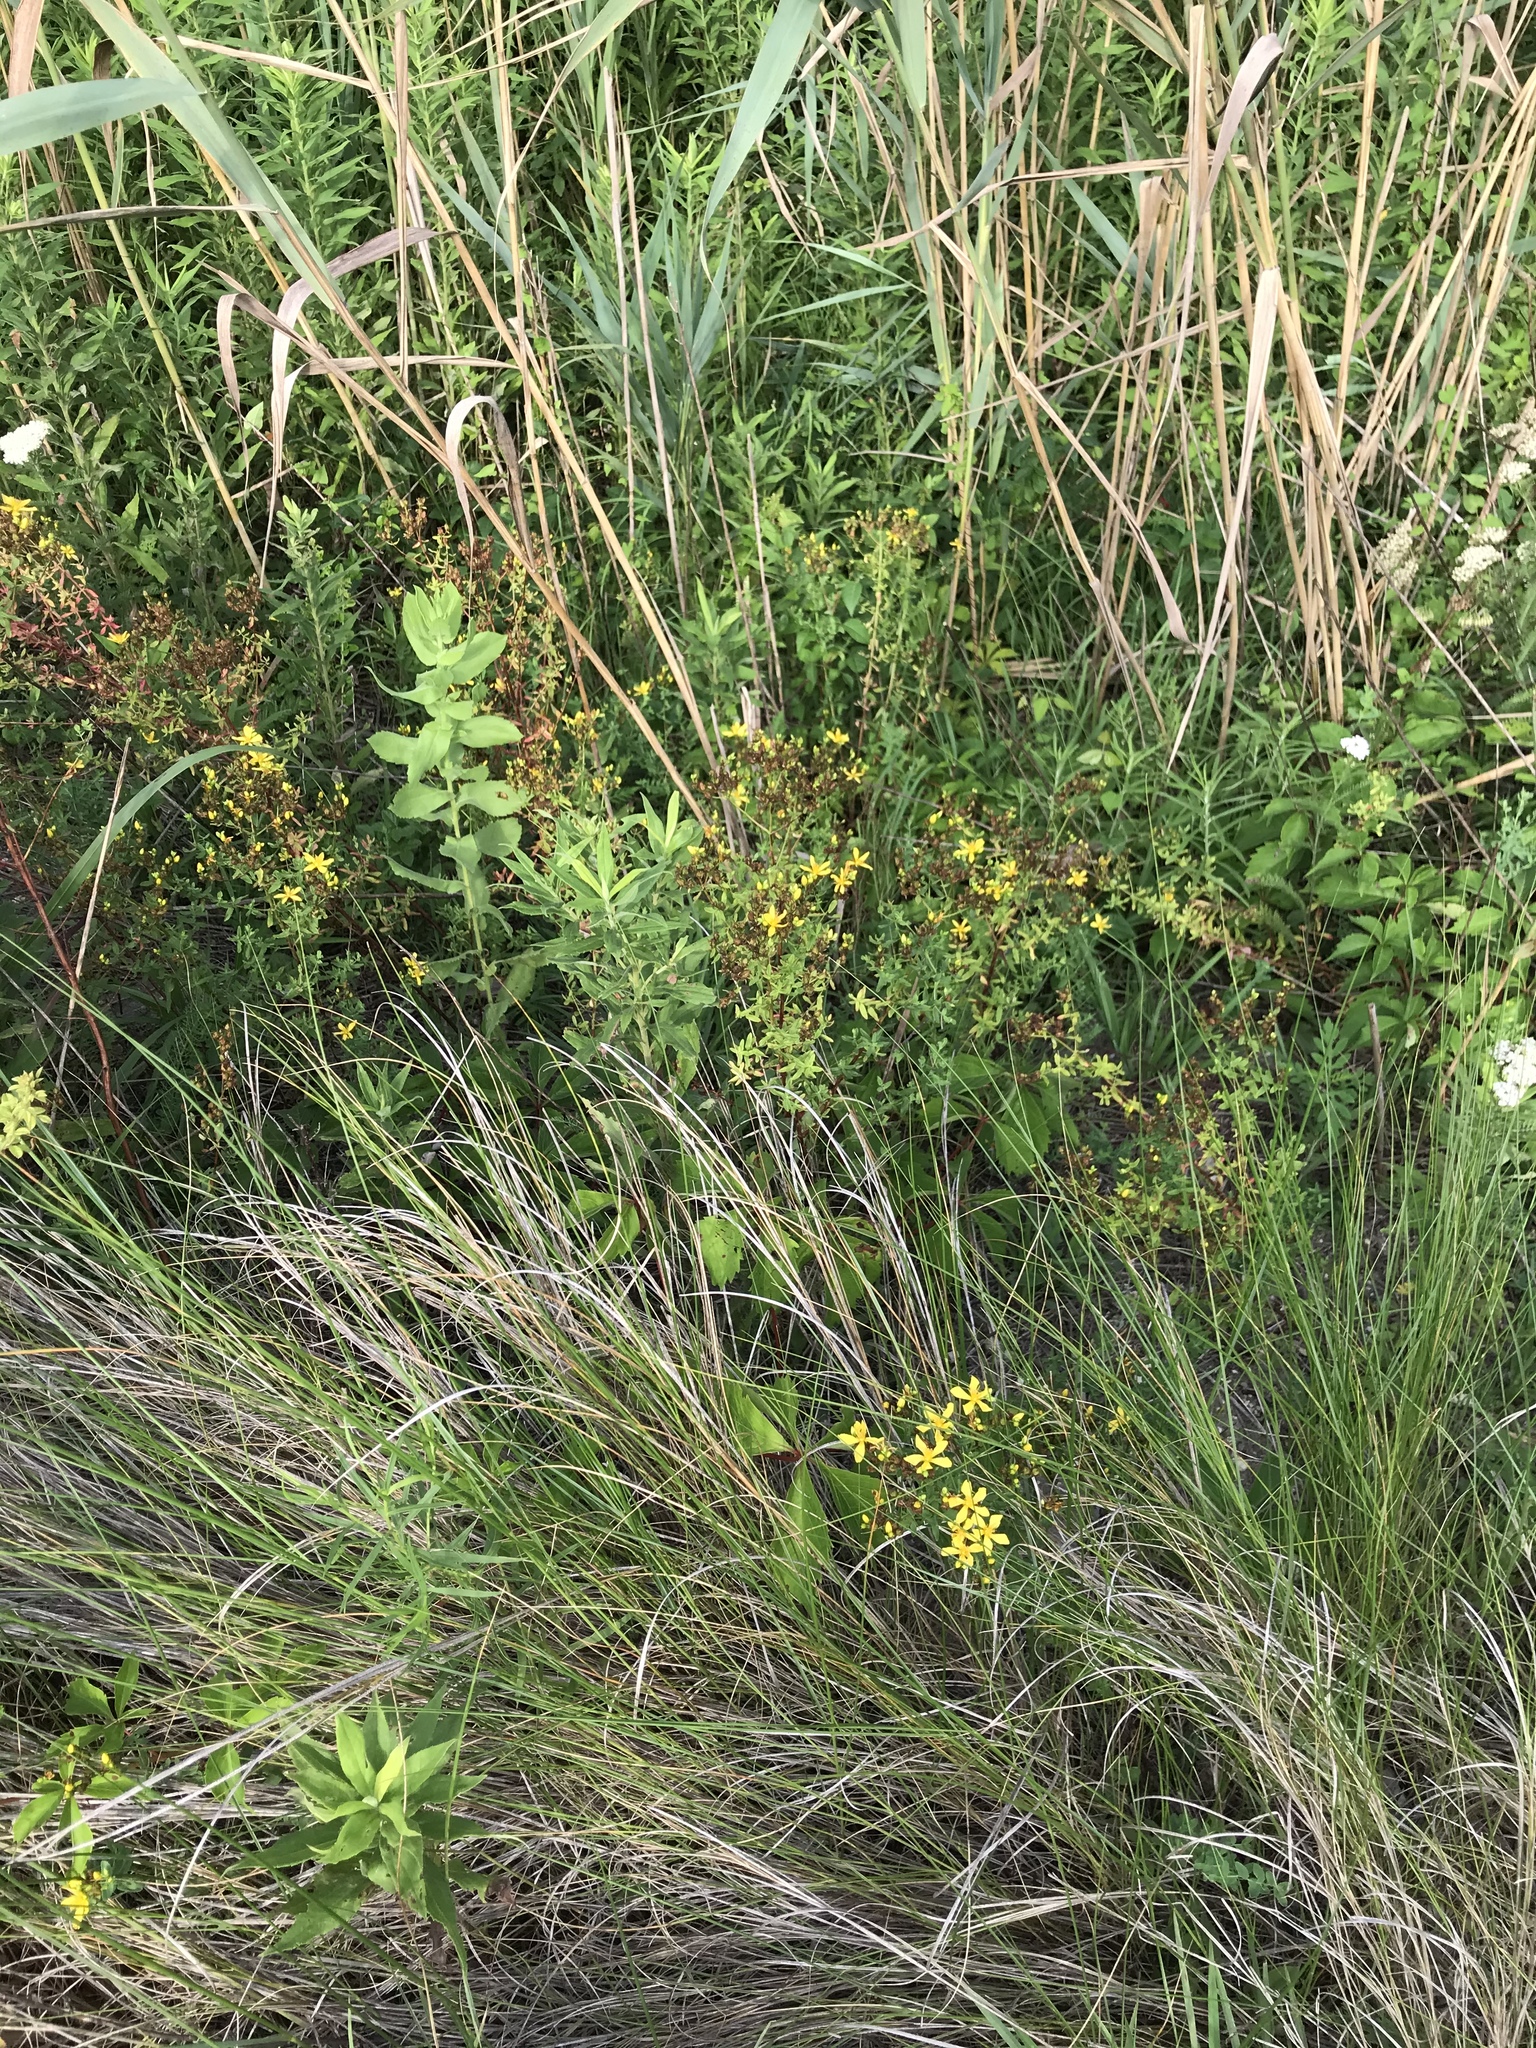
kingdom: Plantae
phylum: Tracheophyta
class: Magnoliopsida
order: Malpighiales
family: Hypericaceae
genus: Hypericum
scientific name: Hypericum perforatum
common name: Common st. johnswort
